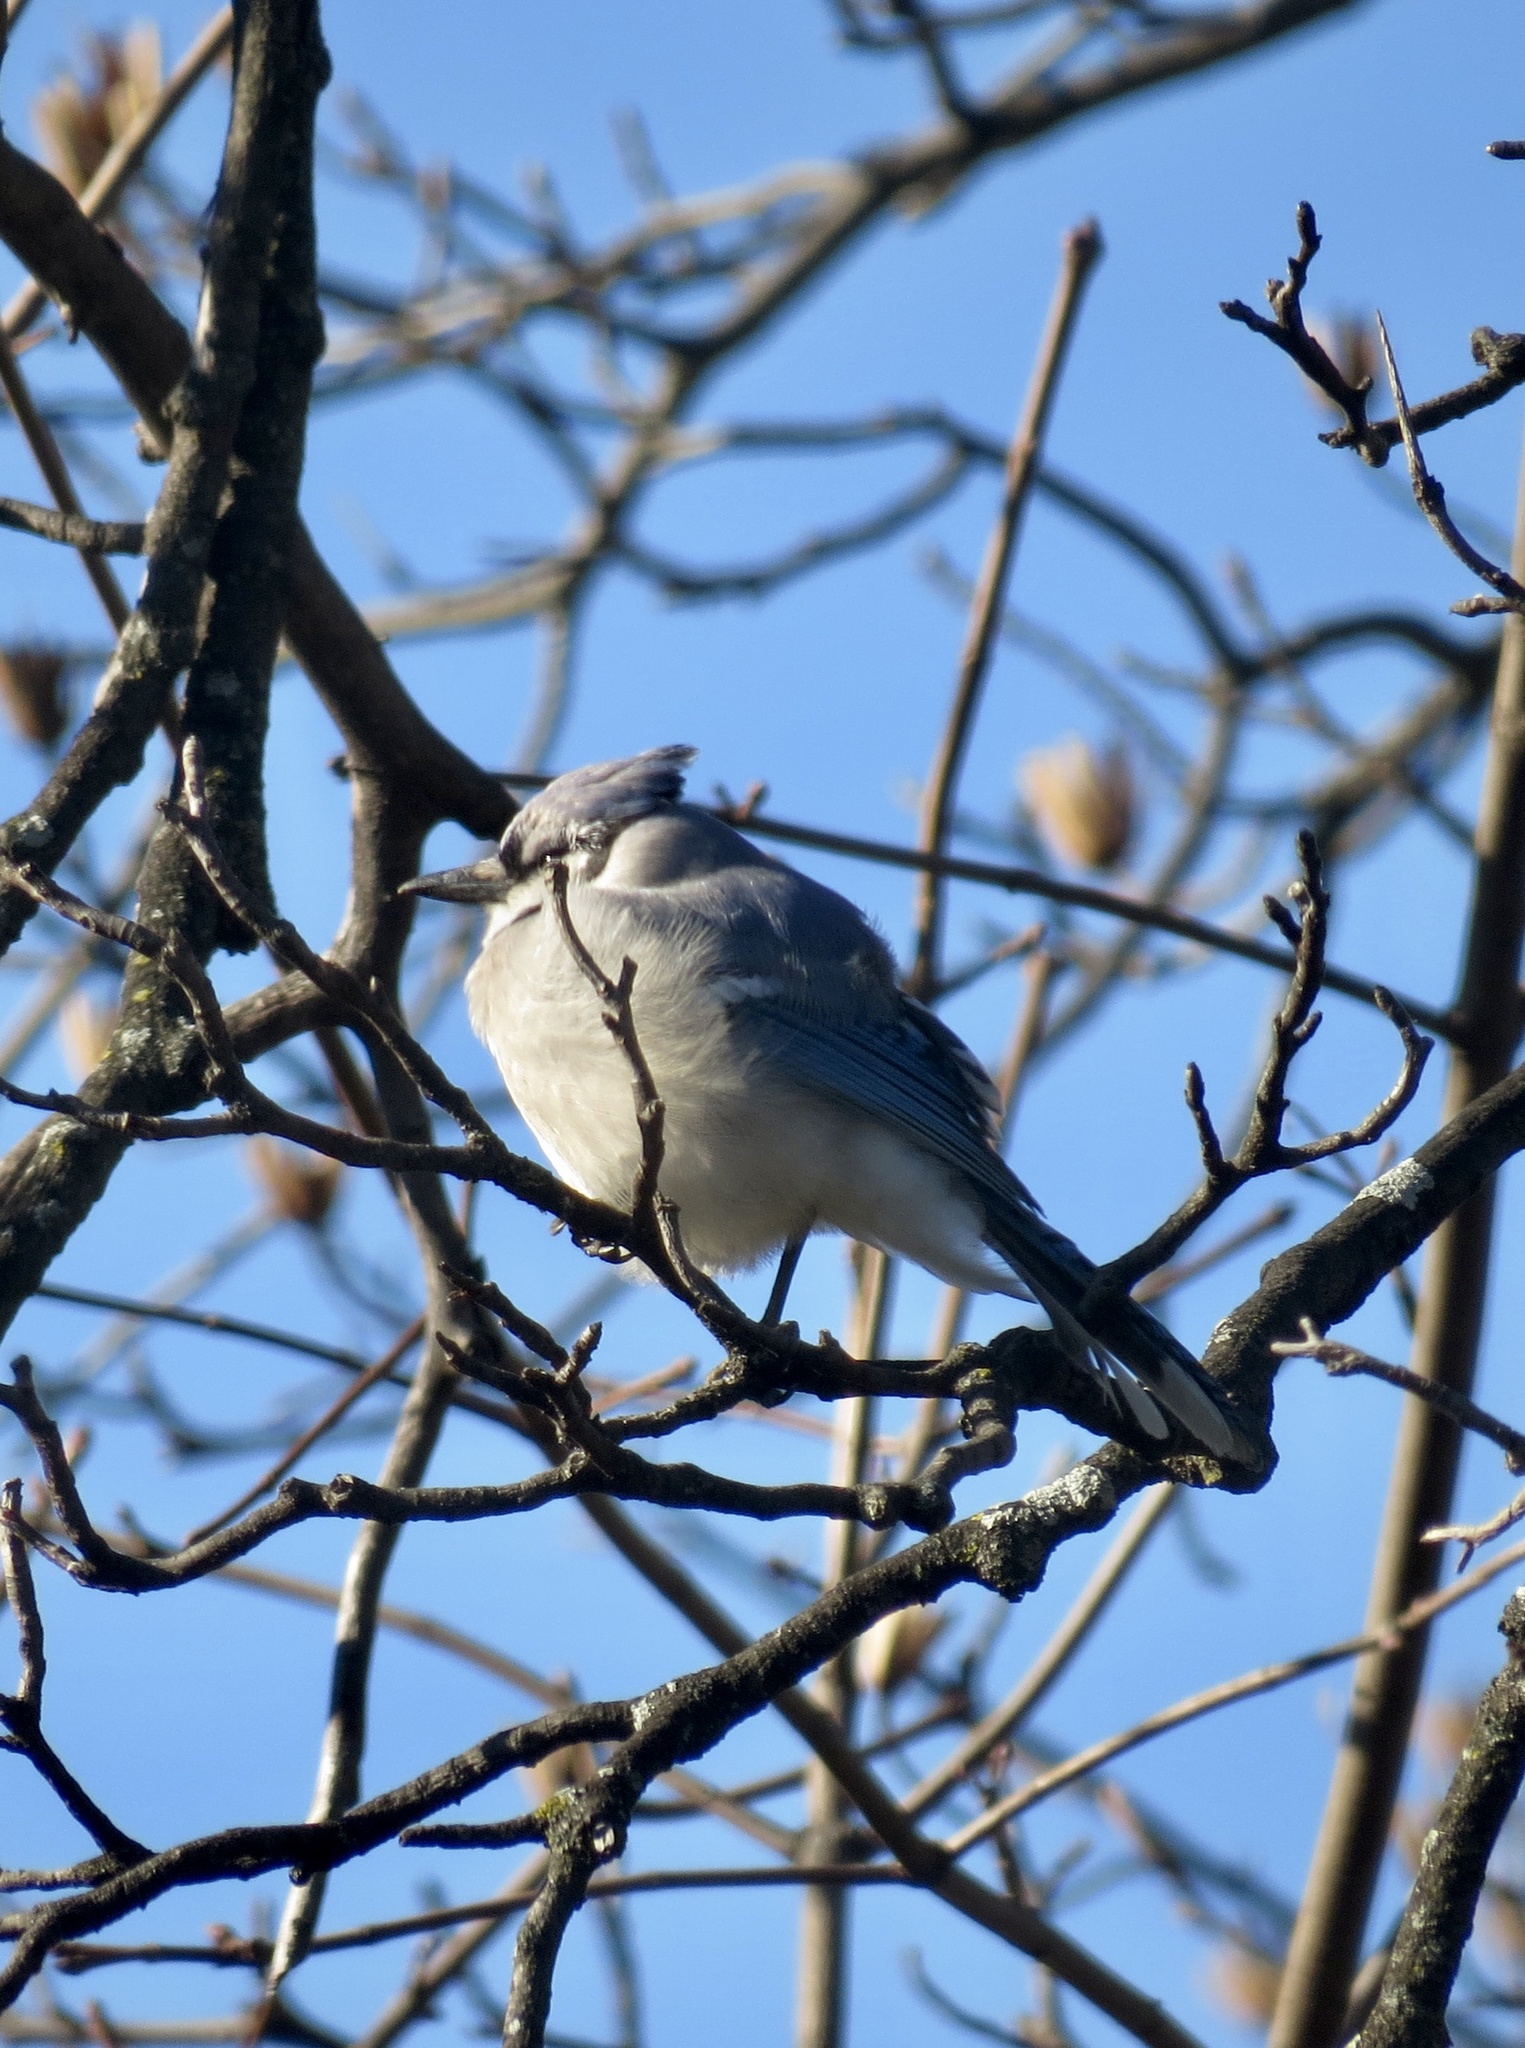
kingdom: Animalia
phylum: Chordata
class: Aves
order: Passeriformes
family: Corvidae
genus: Cyanocitta
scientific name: Cyanocitta cristata
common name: Blue jay
